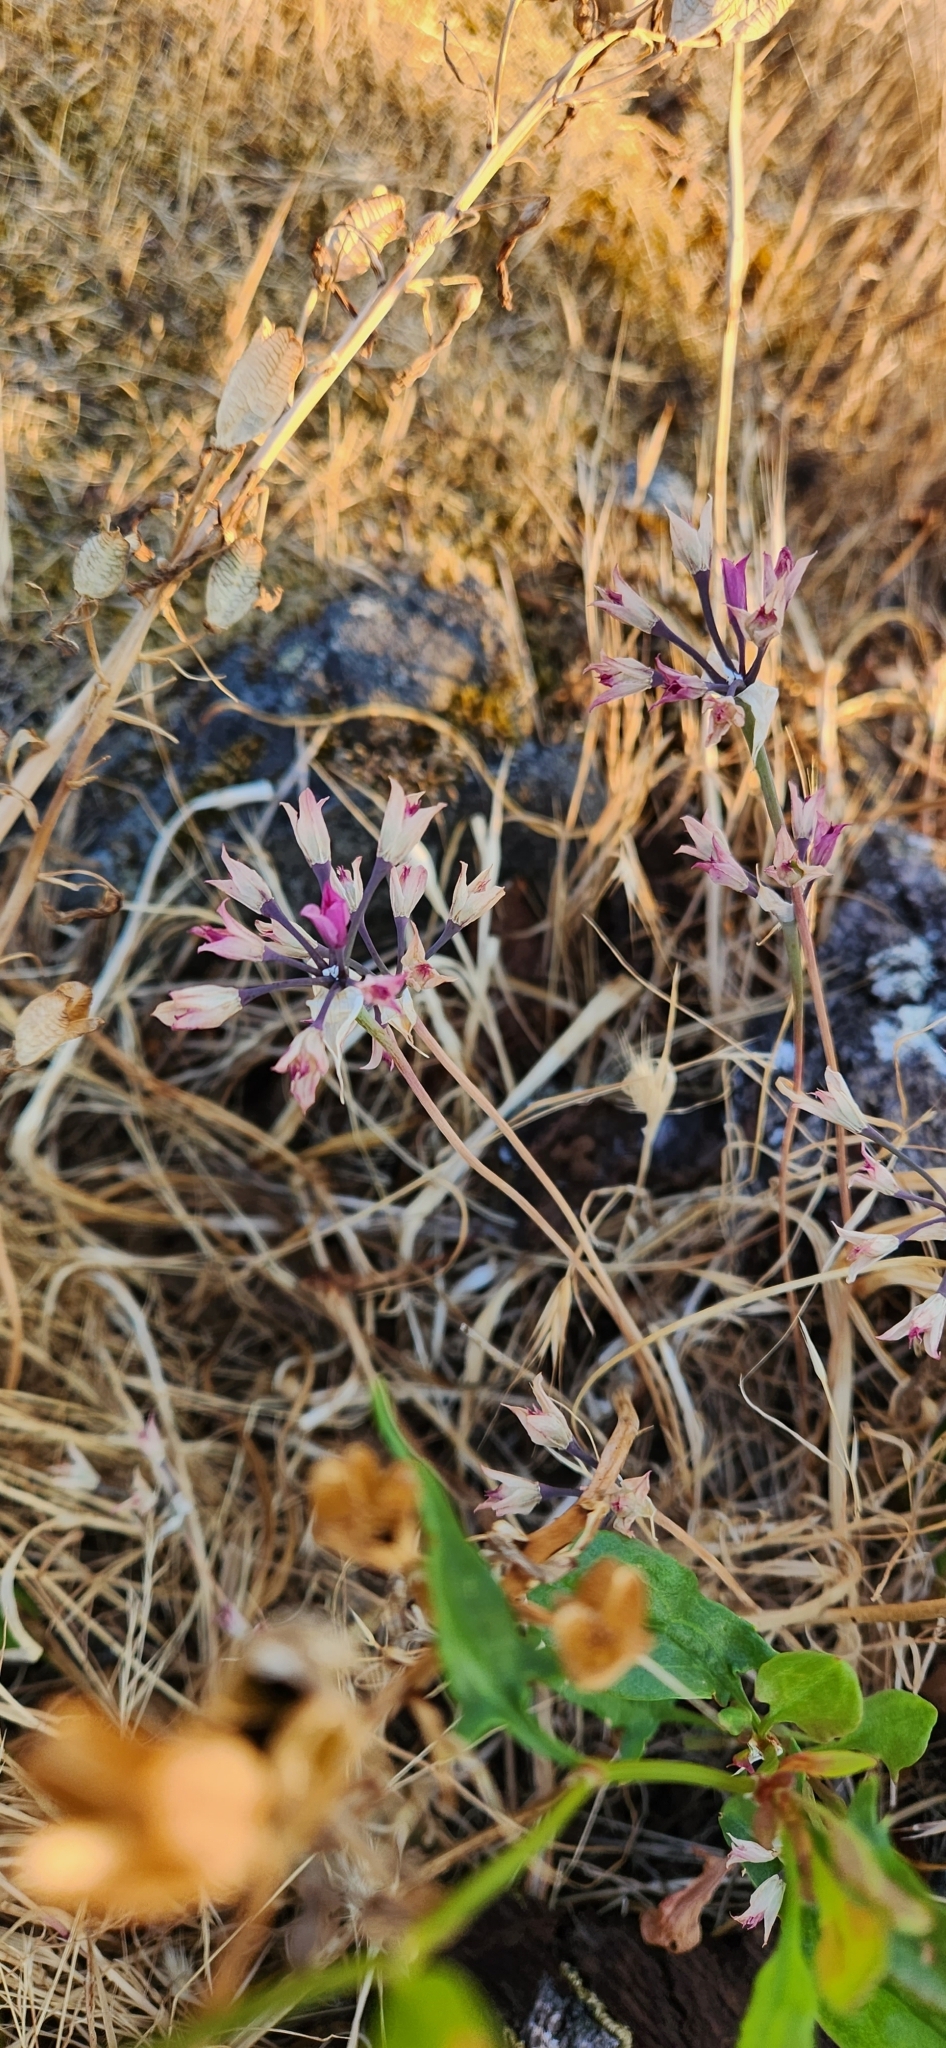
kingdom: Plantae
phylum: Tracheophyta
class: Liliopsida
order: Asparagales
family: Amaryllidaceae
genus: Allium
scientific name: Allium acuminatum
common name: Hooker's onion
